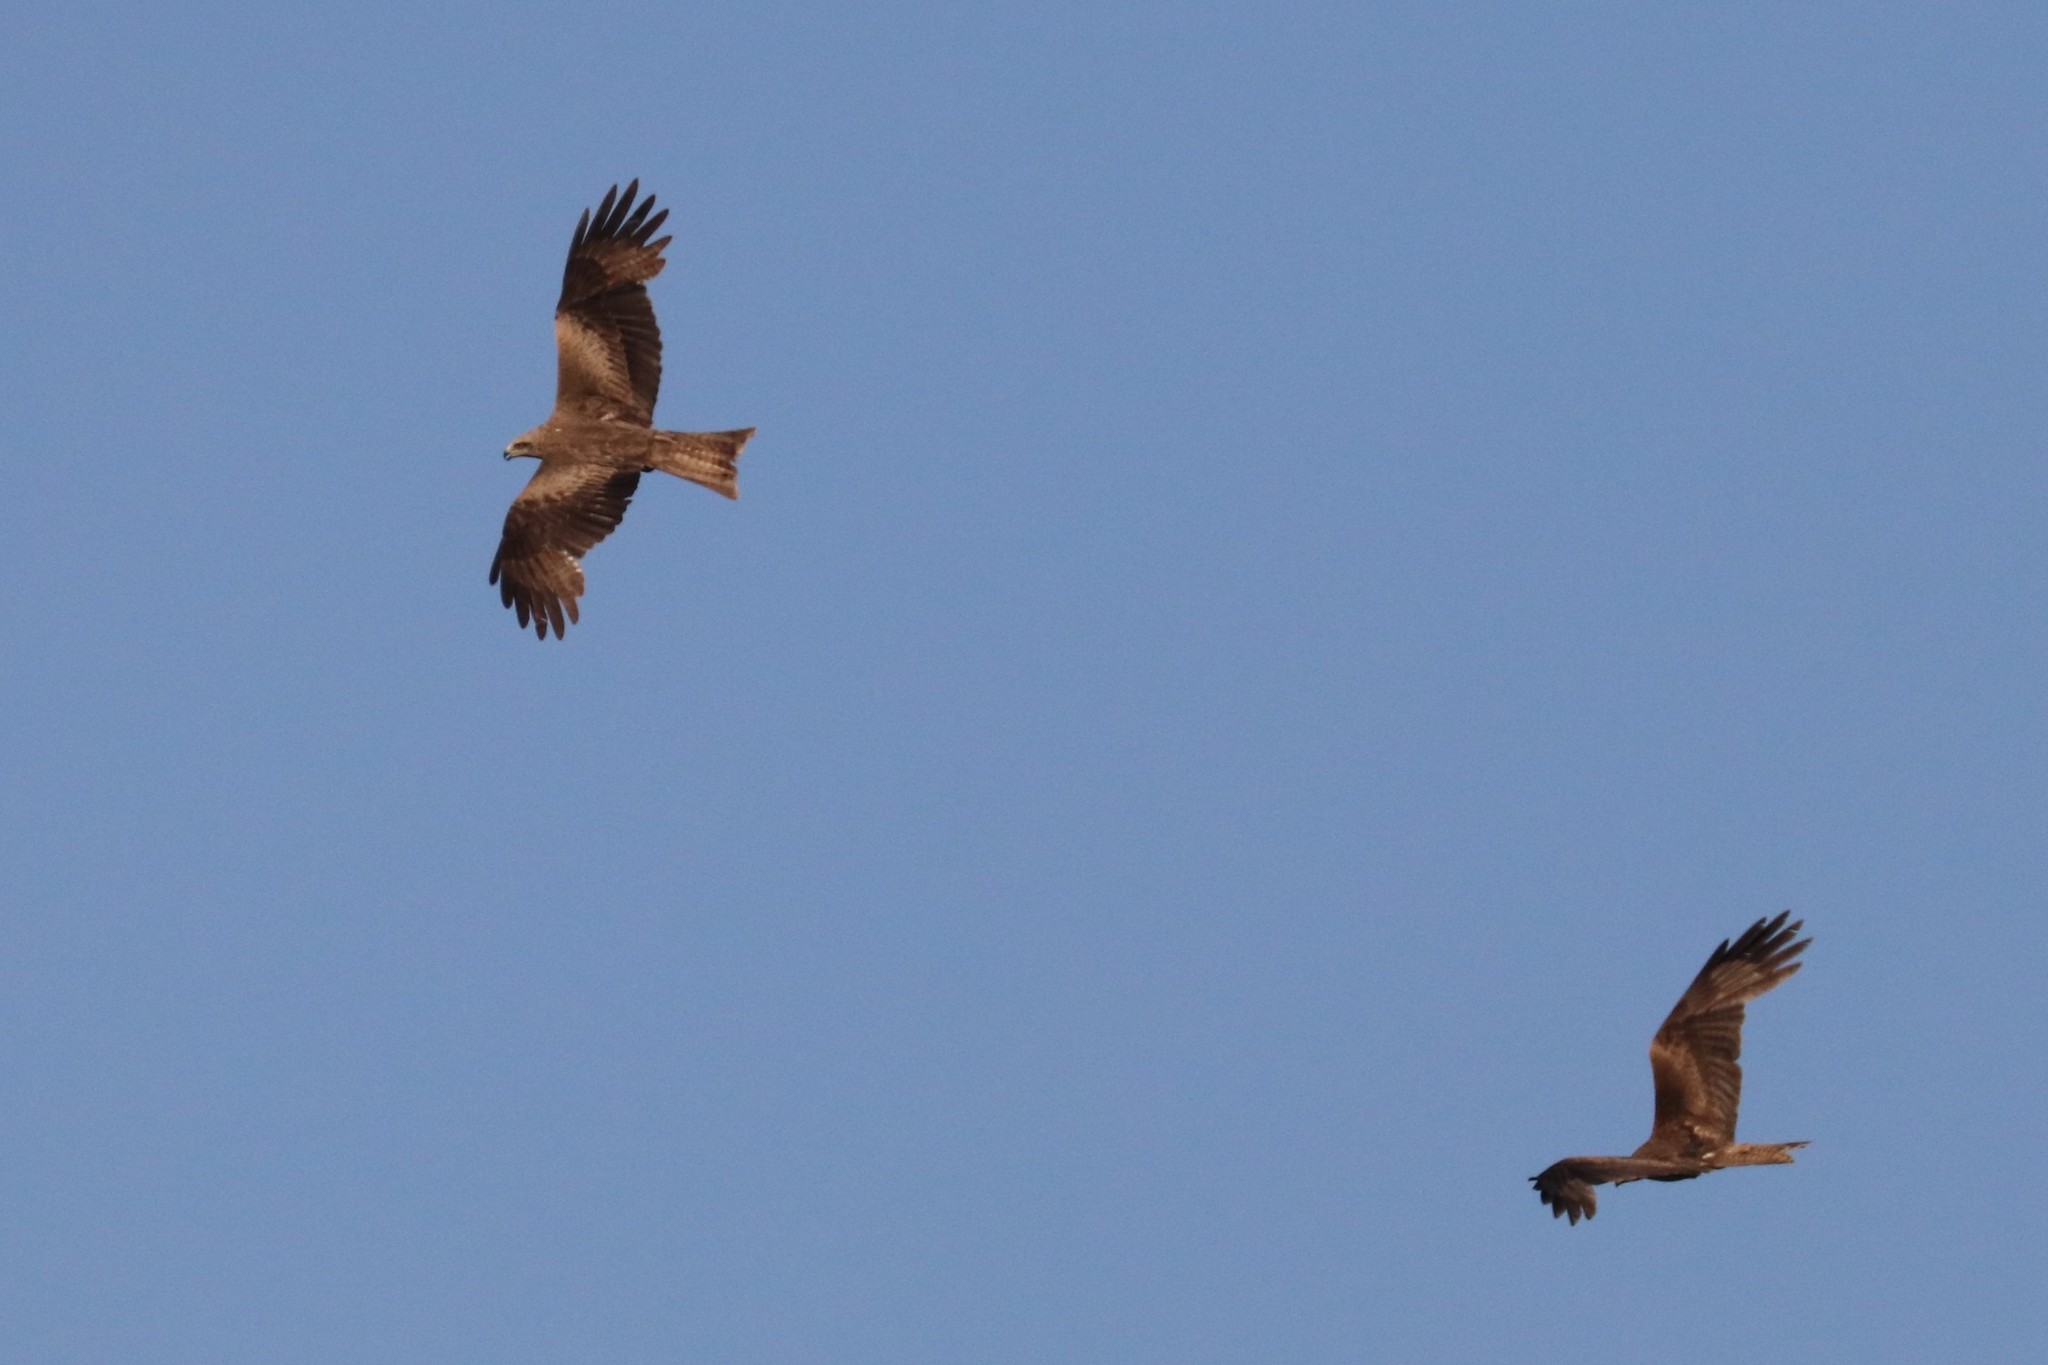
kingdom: Animalia
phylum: Chordata
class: Aves
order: Accipitriformes
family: Accipitridae
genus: Milvus
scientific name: Milvus migrans
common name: Black kite
